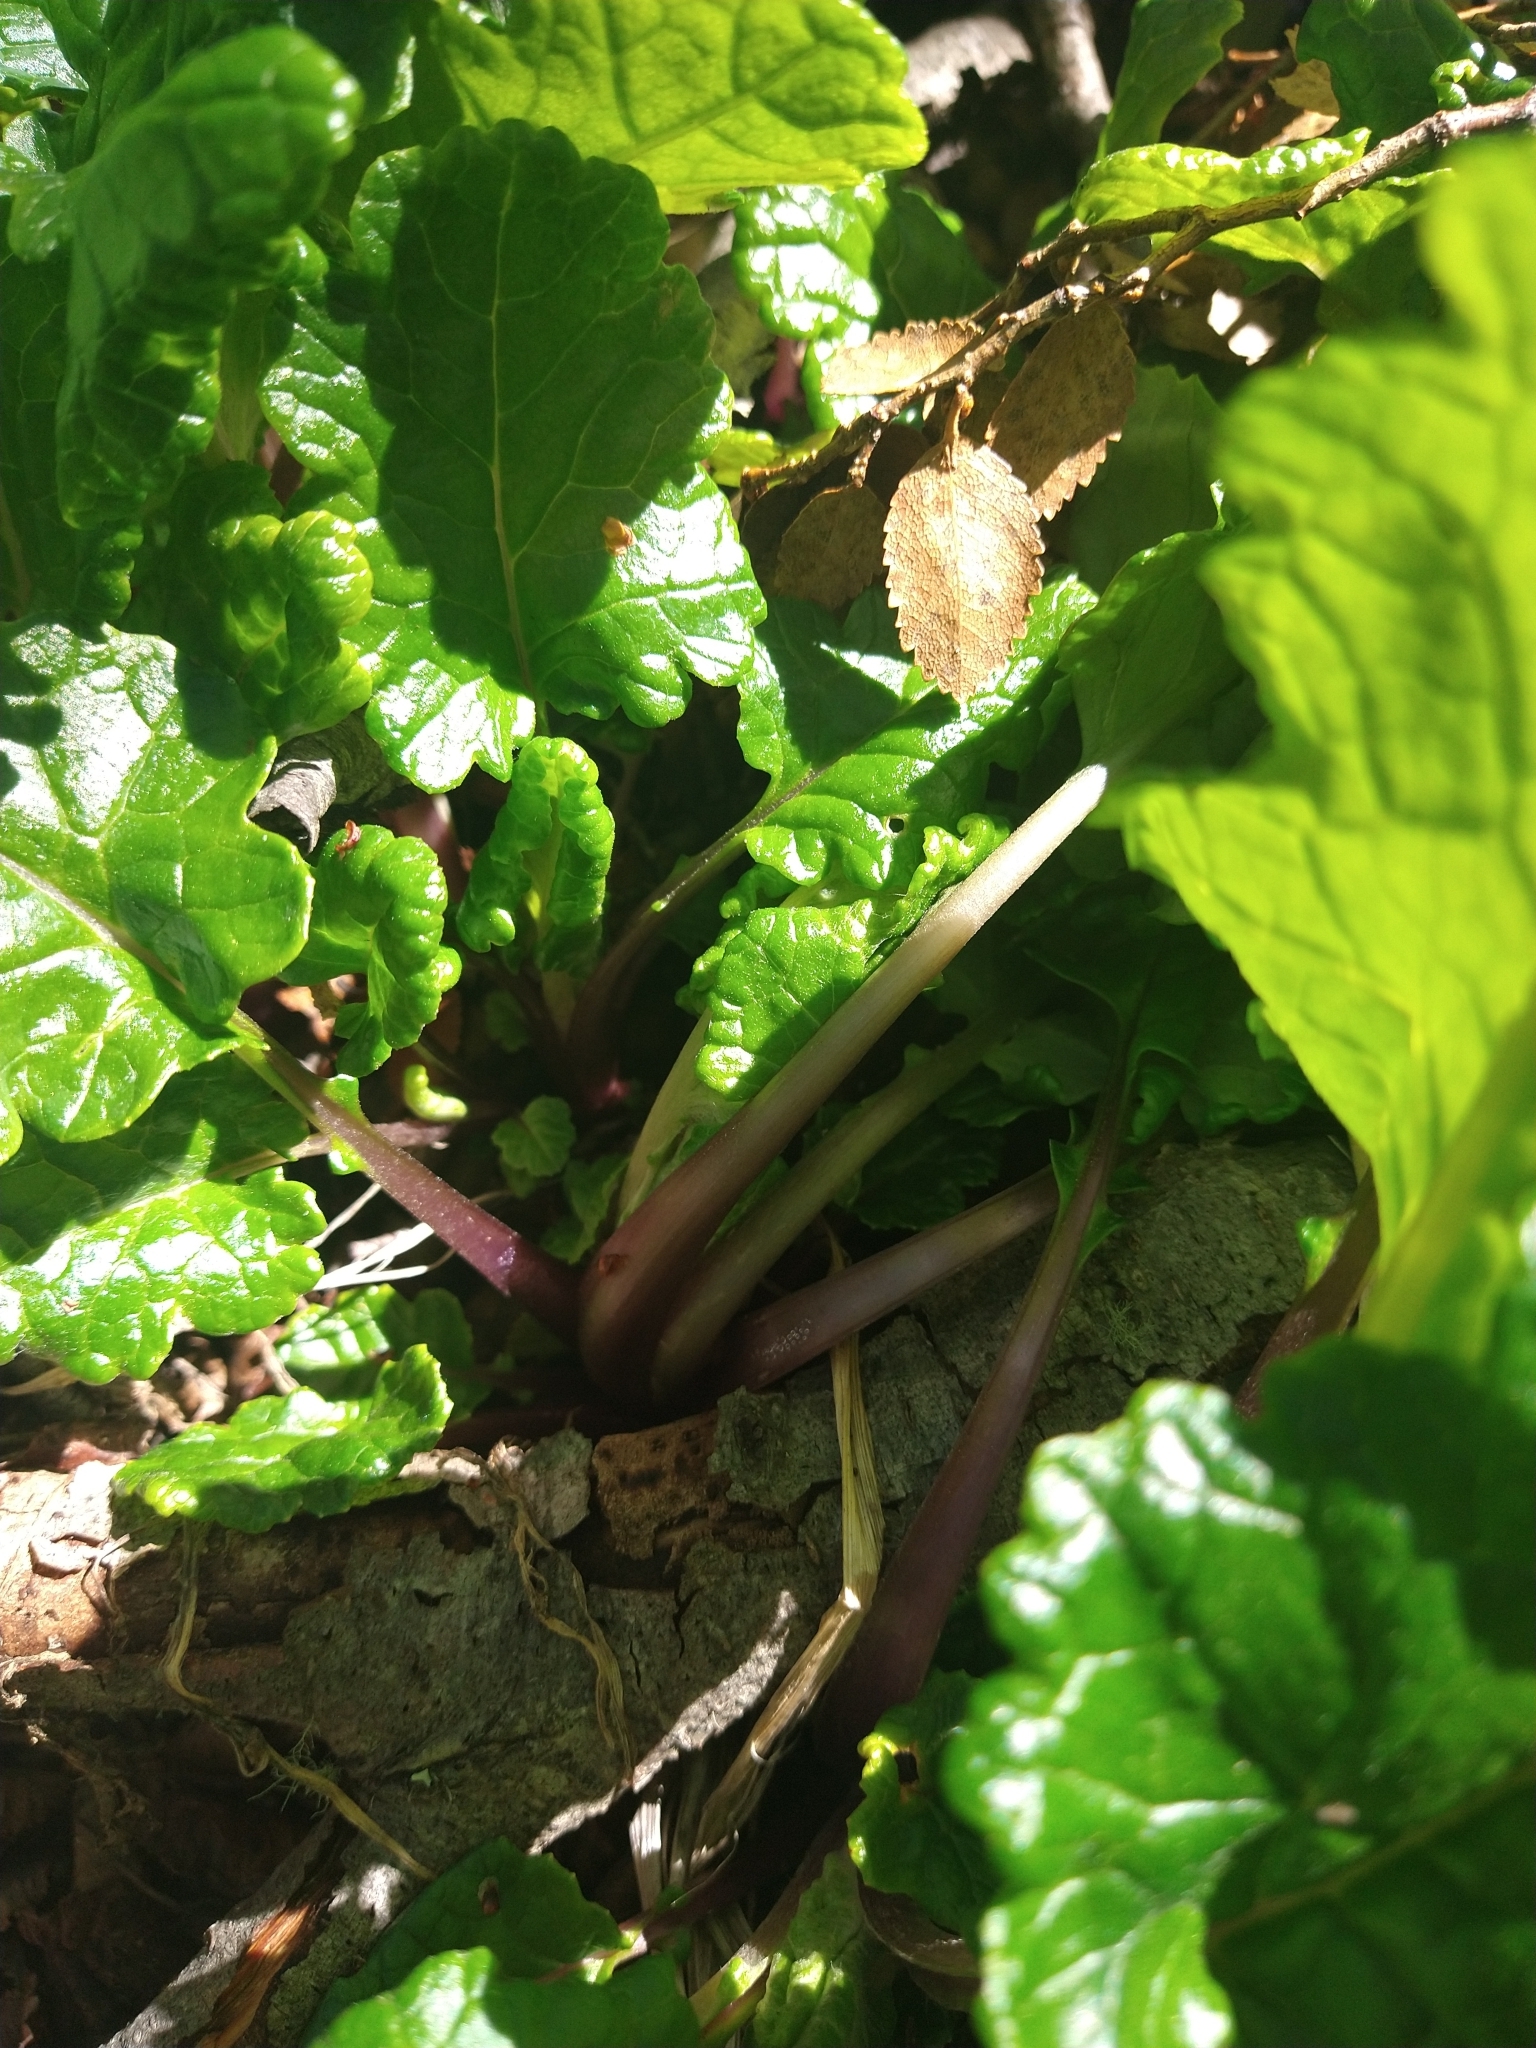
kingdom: Plantae
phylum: Tracheophyta
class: Magnoliopsida
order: Asterales
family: Asteraceae
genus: Iocenes
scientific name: Iocenes virens
